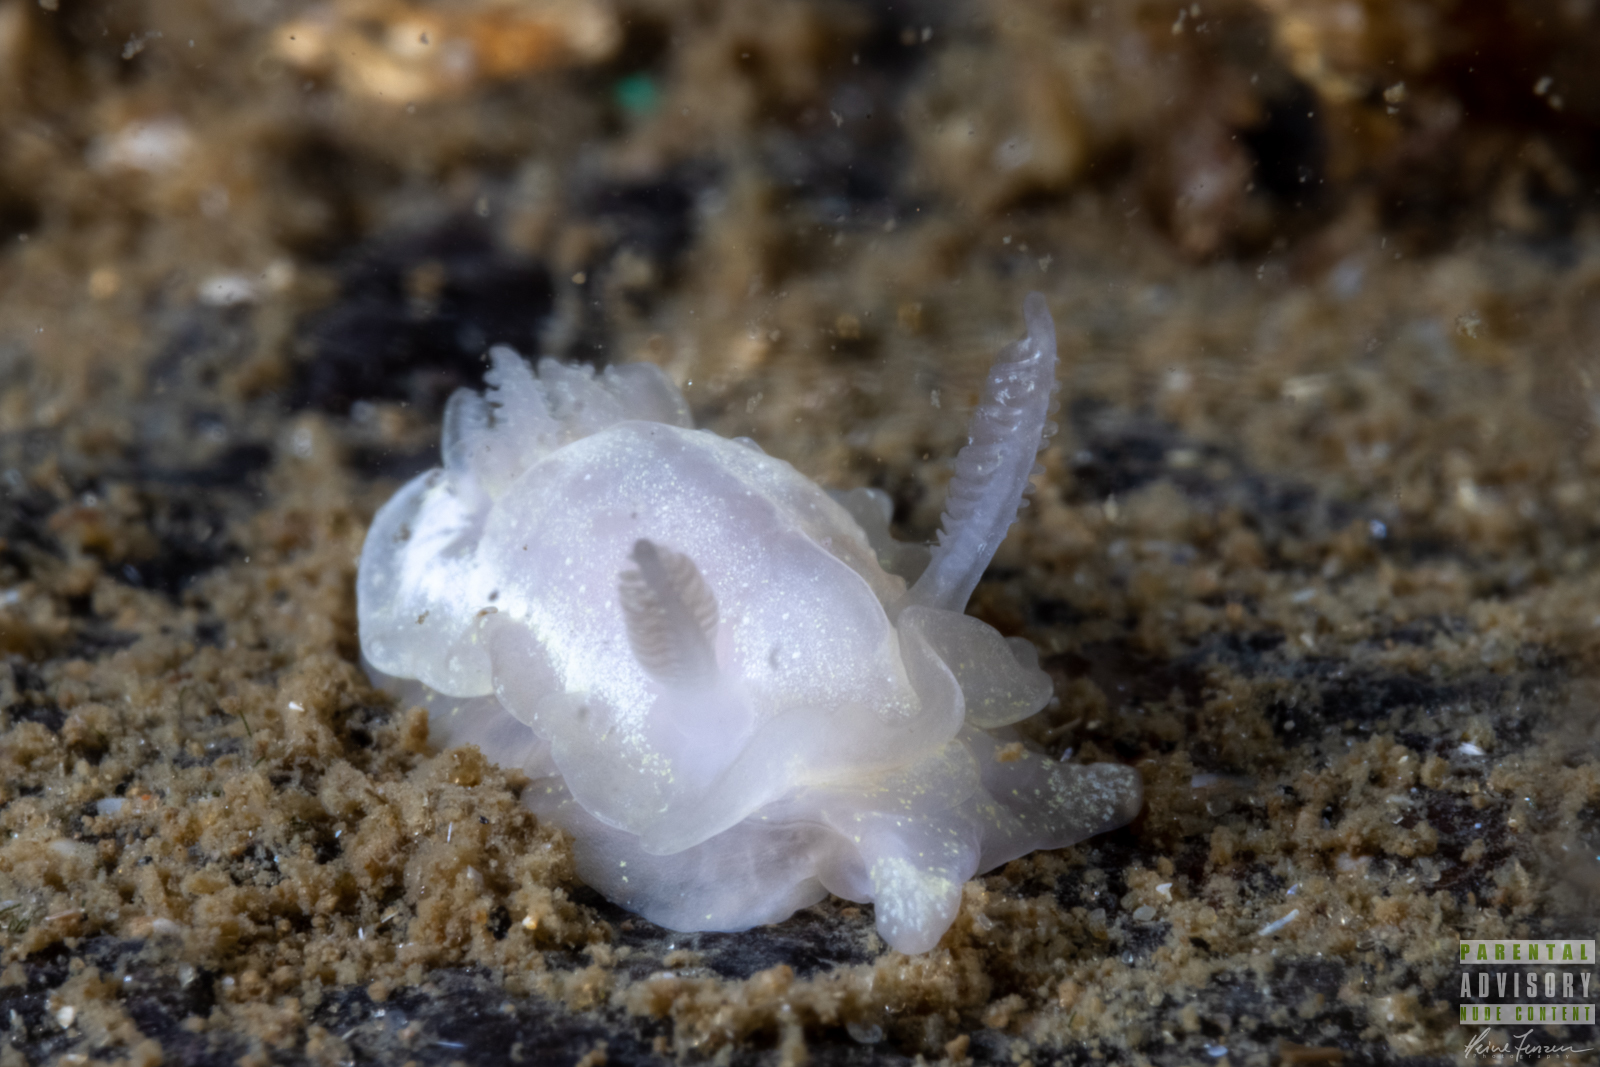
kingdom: Animalia
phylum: Mollusca
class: Gastropoda
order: Nudibranchia
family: Goniodorididae
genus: Okenia
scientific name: Okenia
